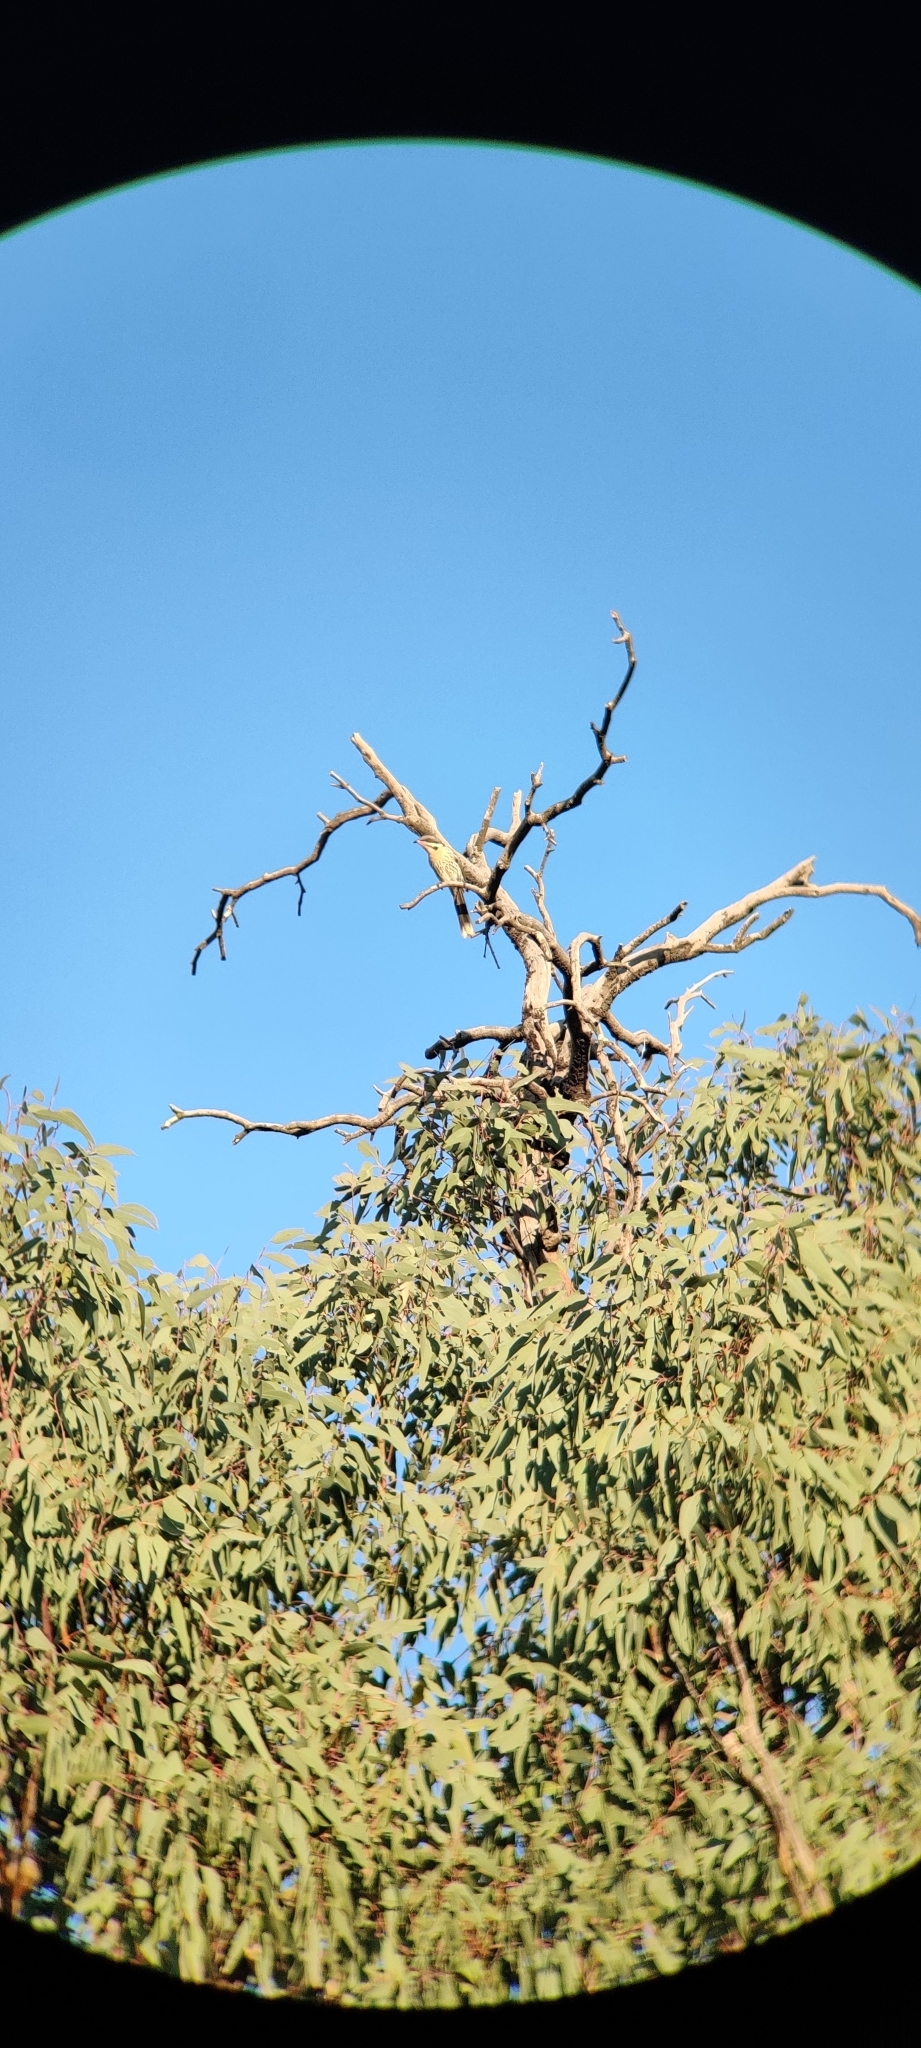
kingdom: Animalia
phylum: Chordata
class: Aves
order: Passeriformes
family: Meliphagidae
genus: Acanthagenys
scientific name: Acanthagenys rufogularis
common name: Spiny-cheeked honeyeater
